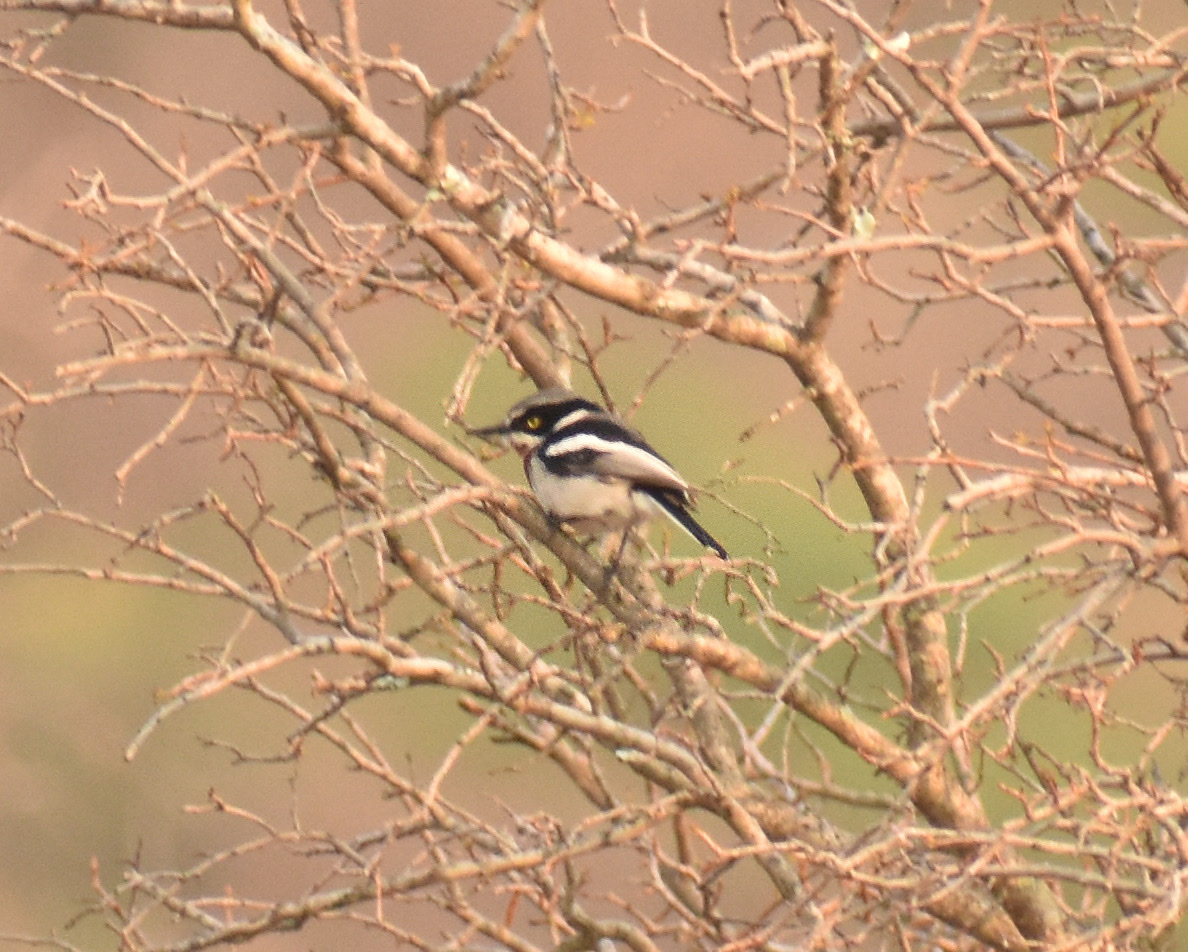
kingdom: Animalia
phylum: Chordata
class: Aves
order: Passeriformes
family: Platysteiridae
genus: Batis
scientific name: Batis molitor
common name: Chinspot batis
